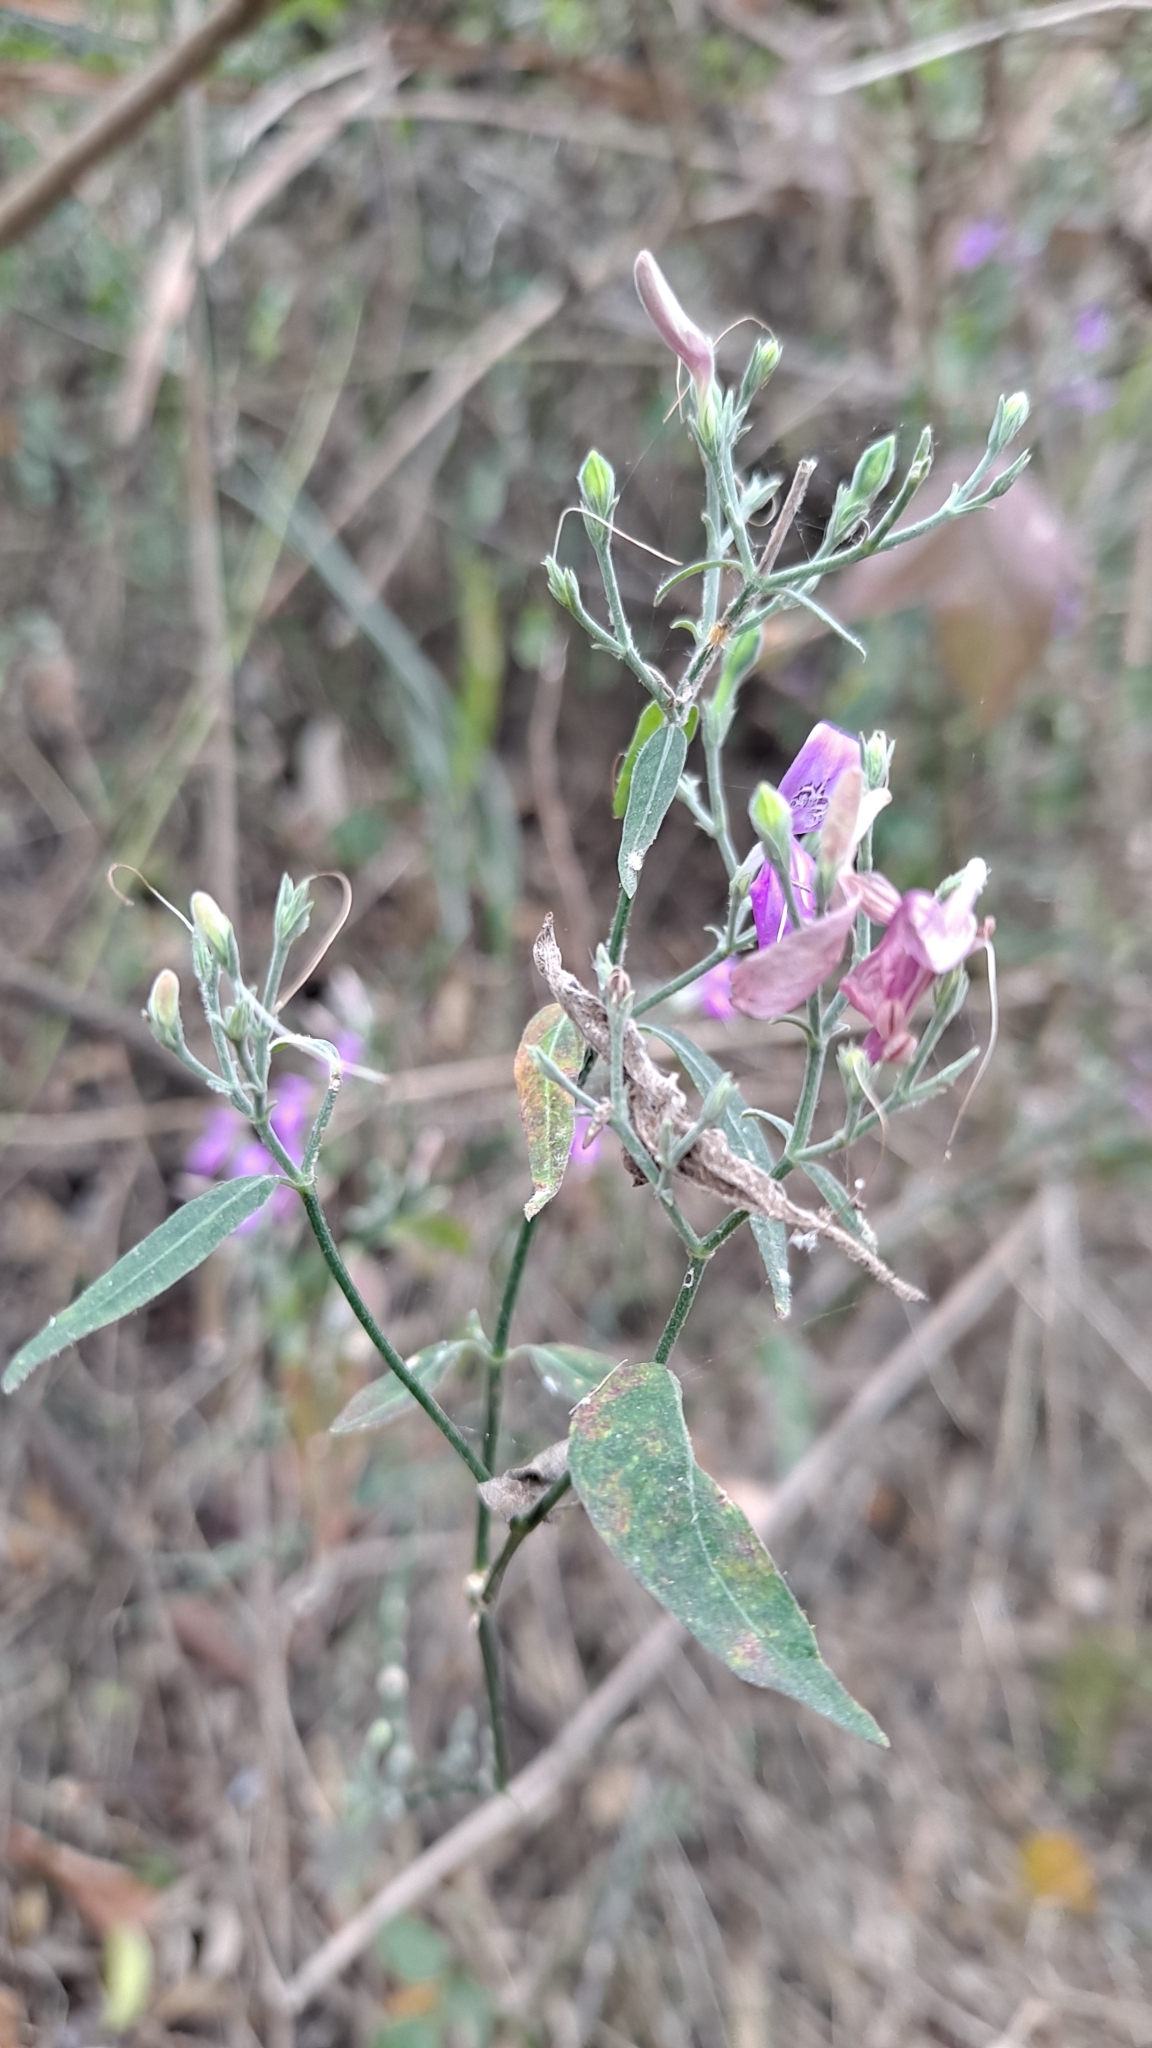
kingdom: Plantae
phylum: Tracheophyta
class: Magnoliopsida
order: Lamiales
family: Acanthaceae
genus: Hypoestes
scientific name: Hypoestes cumingiana
